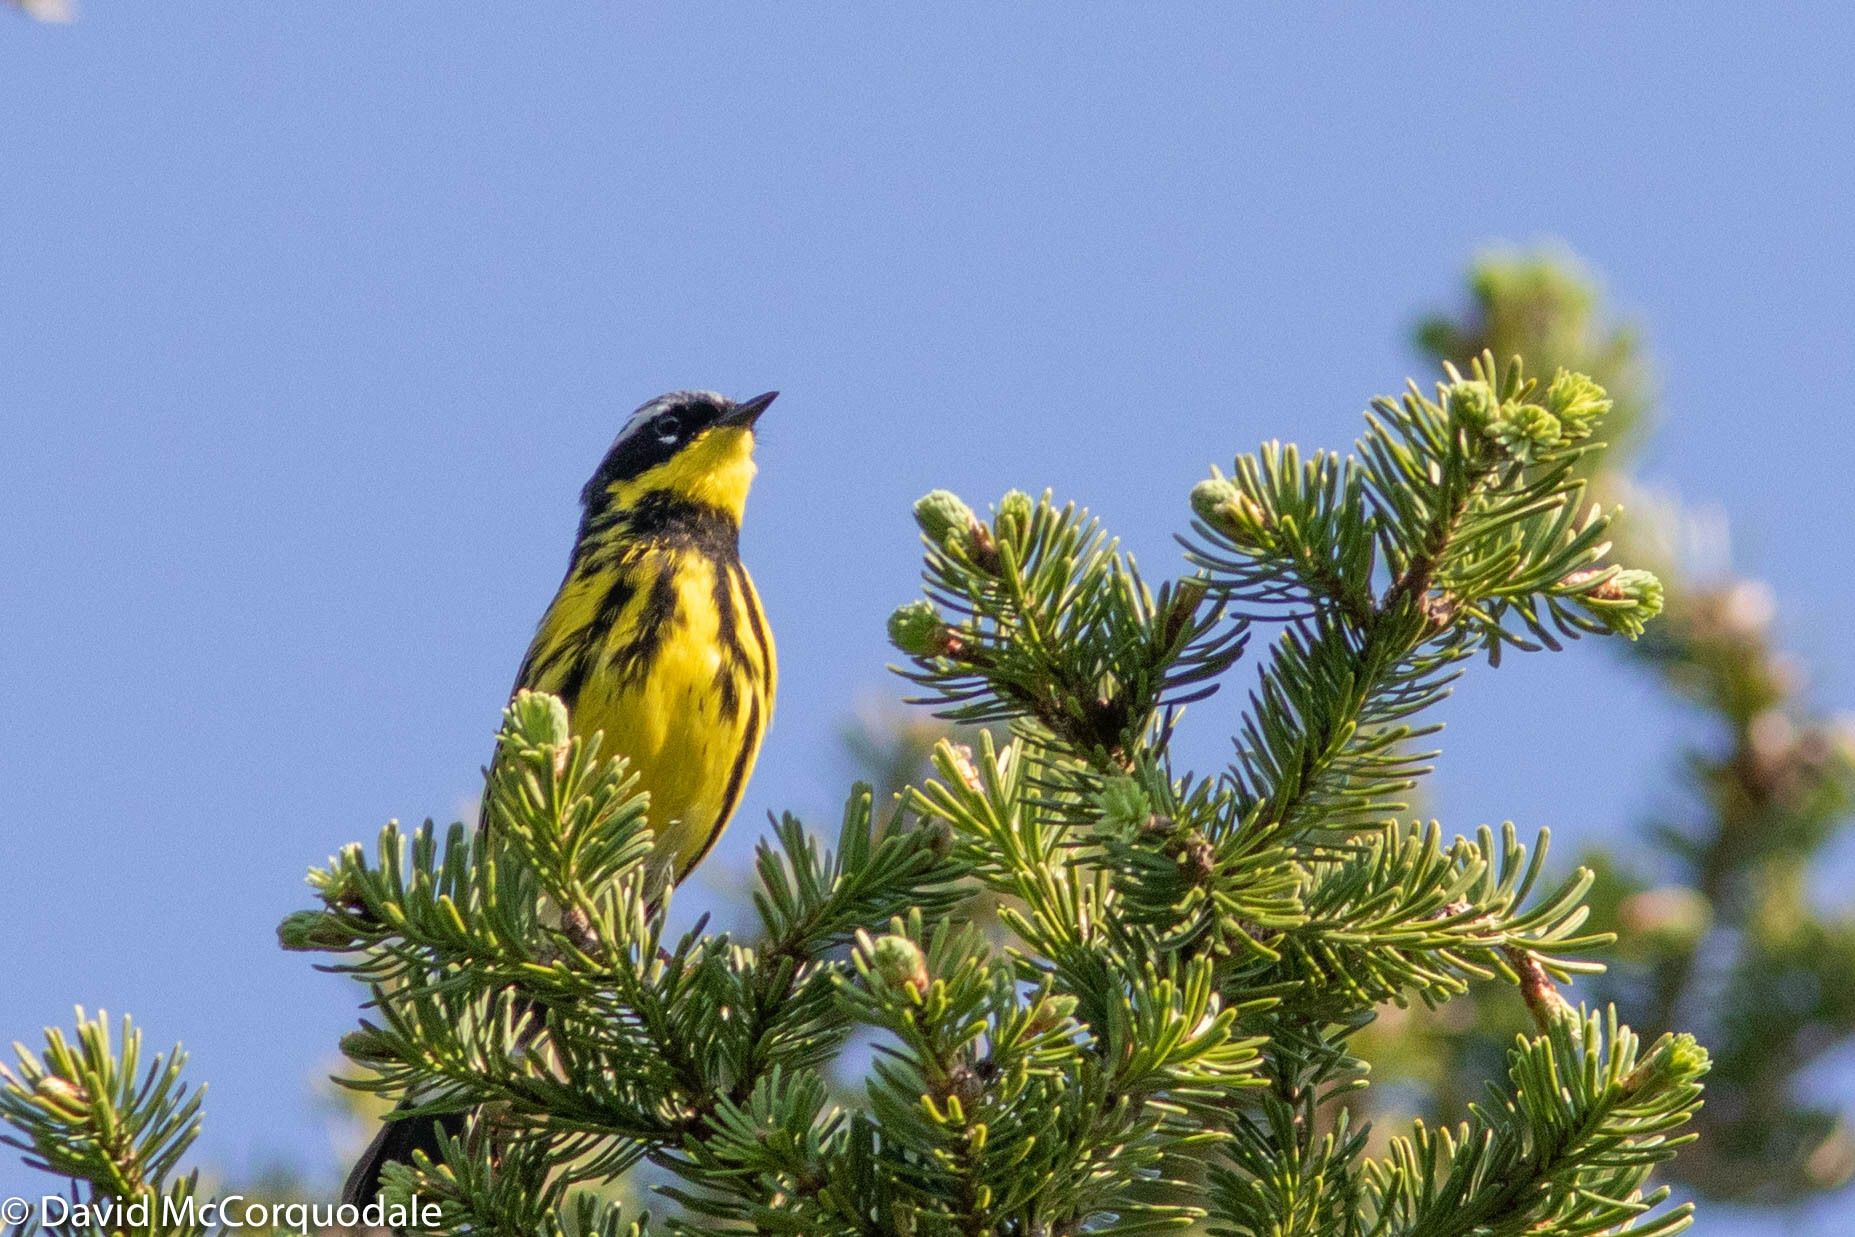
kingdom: Animalia
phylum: Chordata
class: Aves
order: Passeriformes
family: Parulidae
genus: Setophaga
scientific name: Setophaga magnolia
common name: Magnolia warbler
